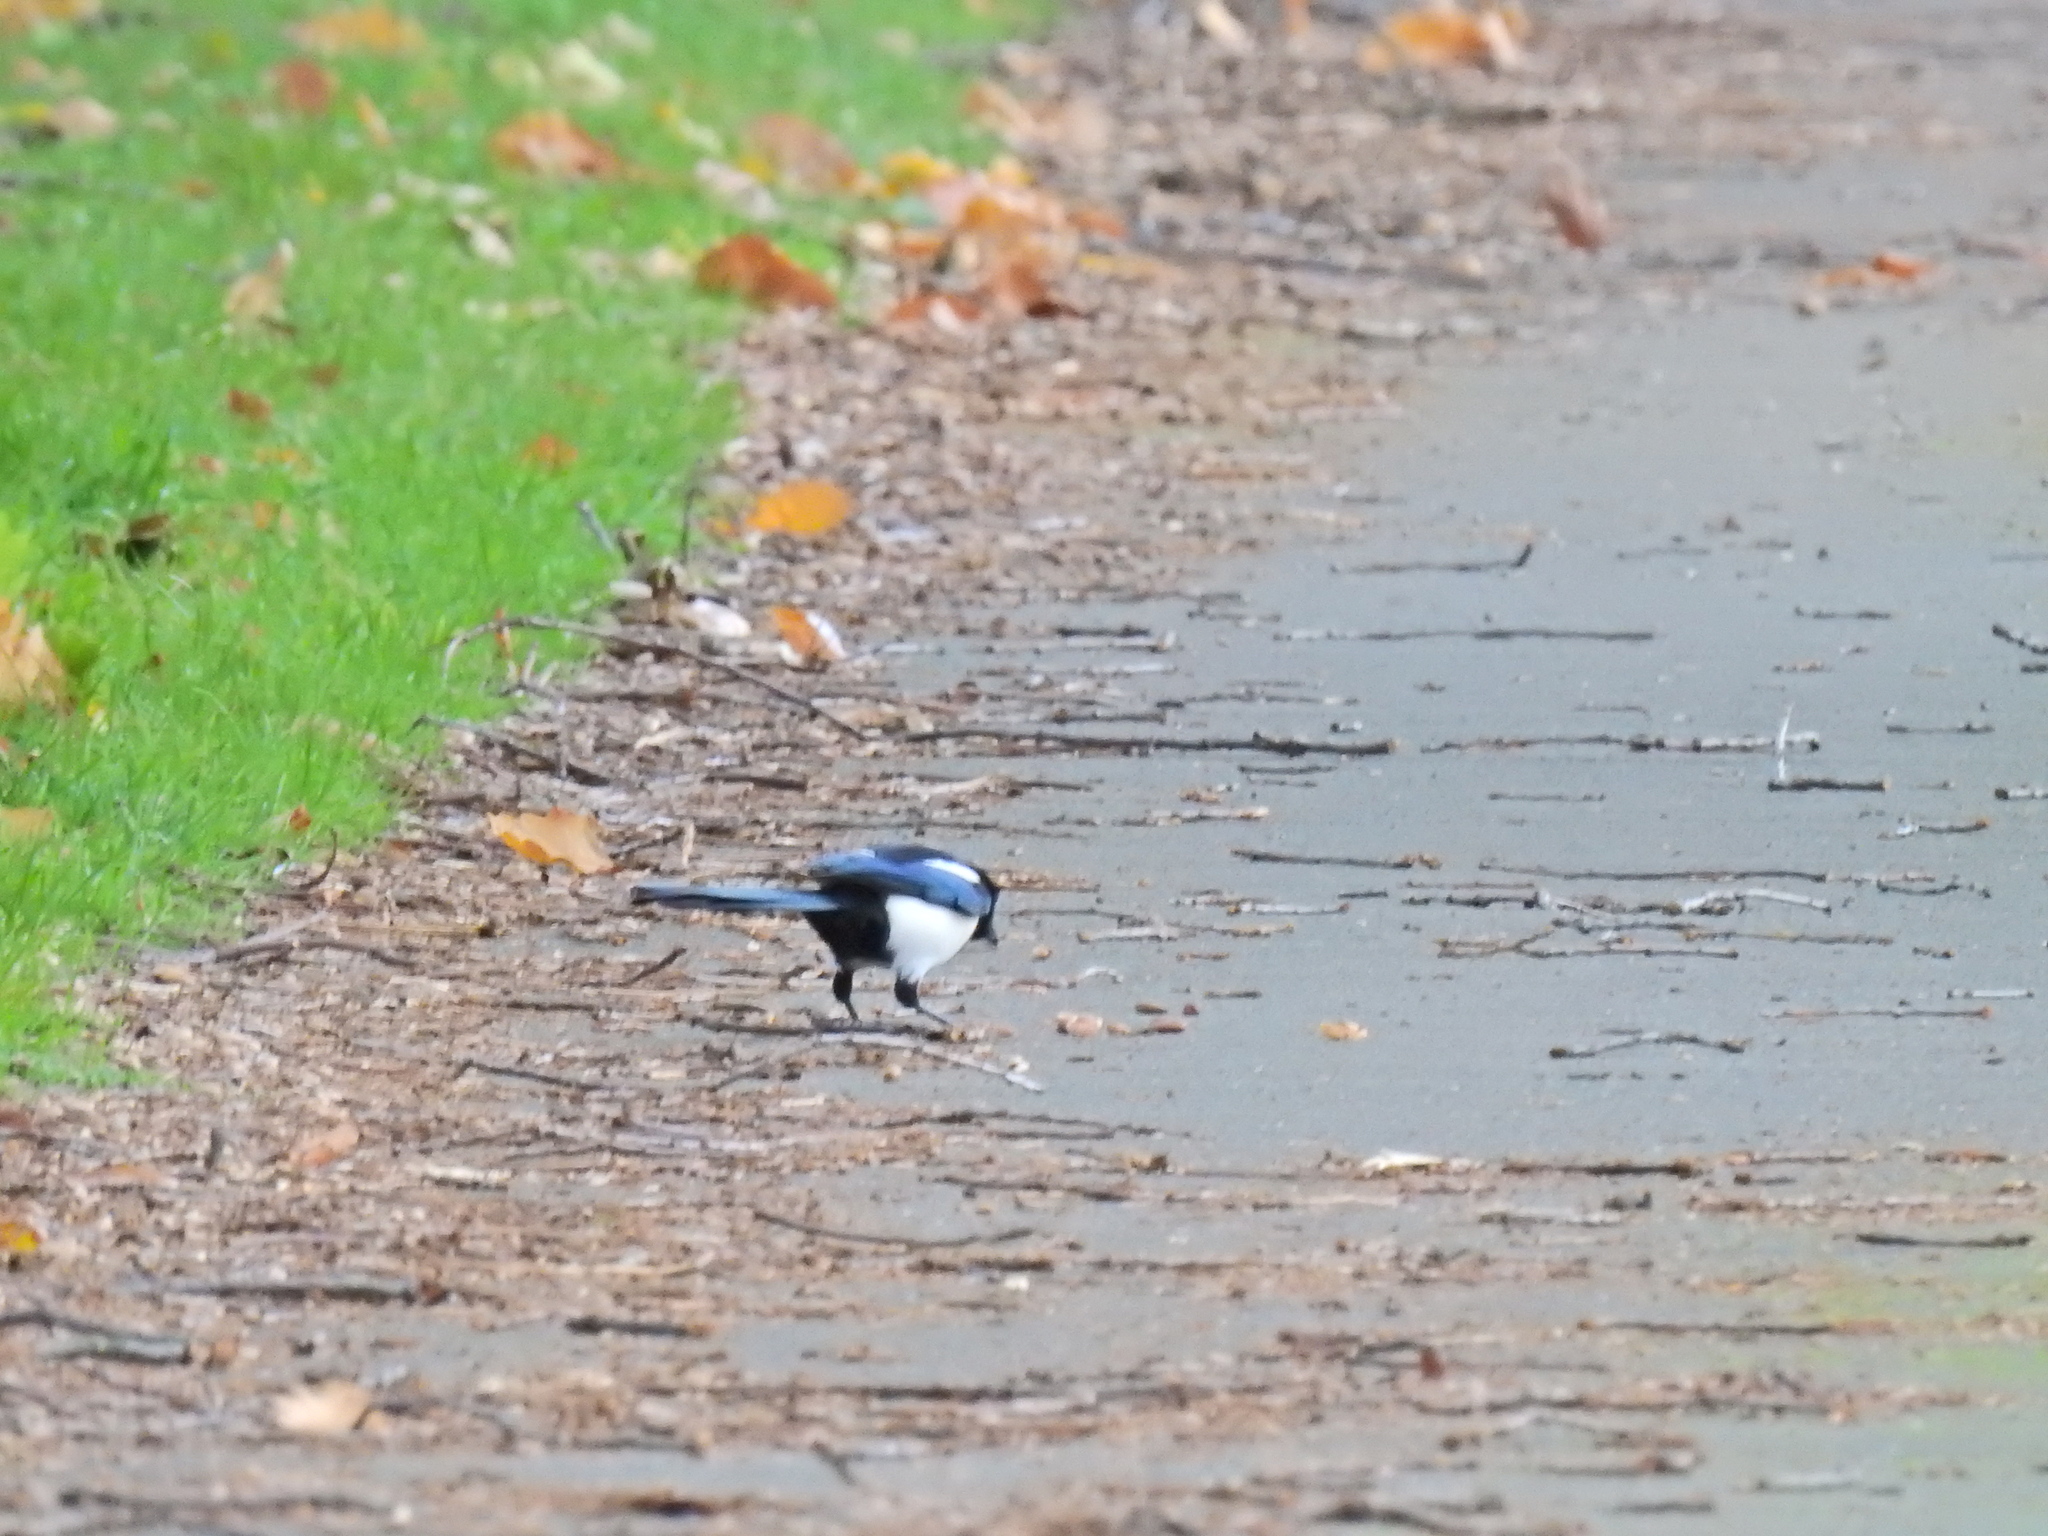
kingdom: Animalia
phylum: Chordata
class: Aves
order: Passeriformes
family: Corvidae
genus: Pica
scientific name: Pica pica
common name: Eurasian magpie
